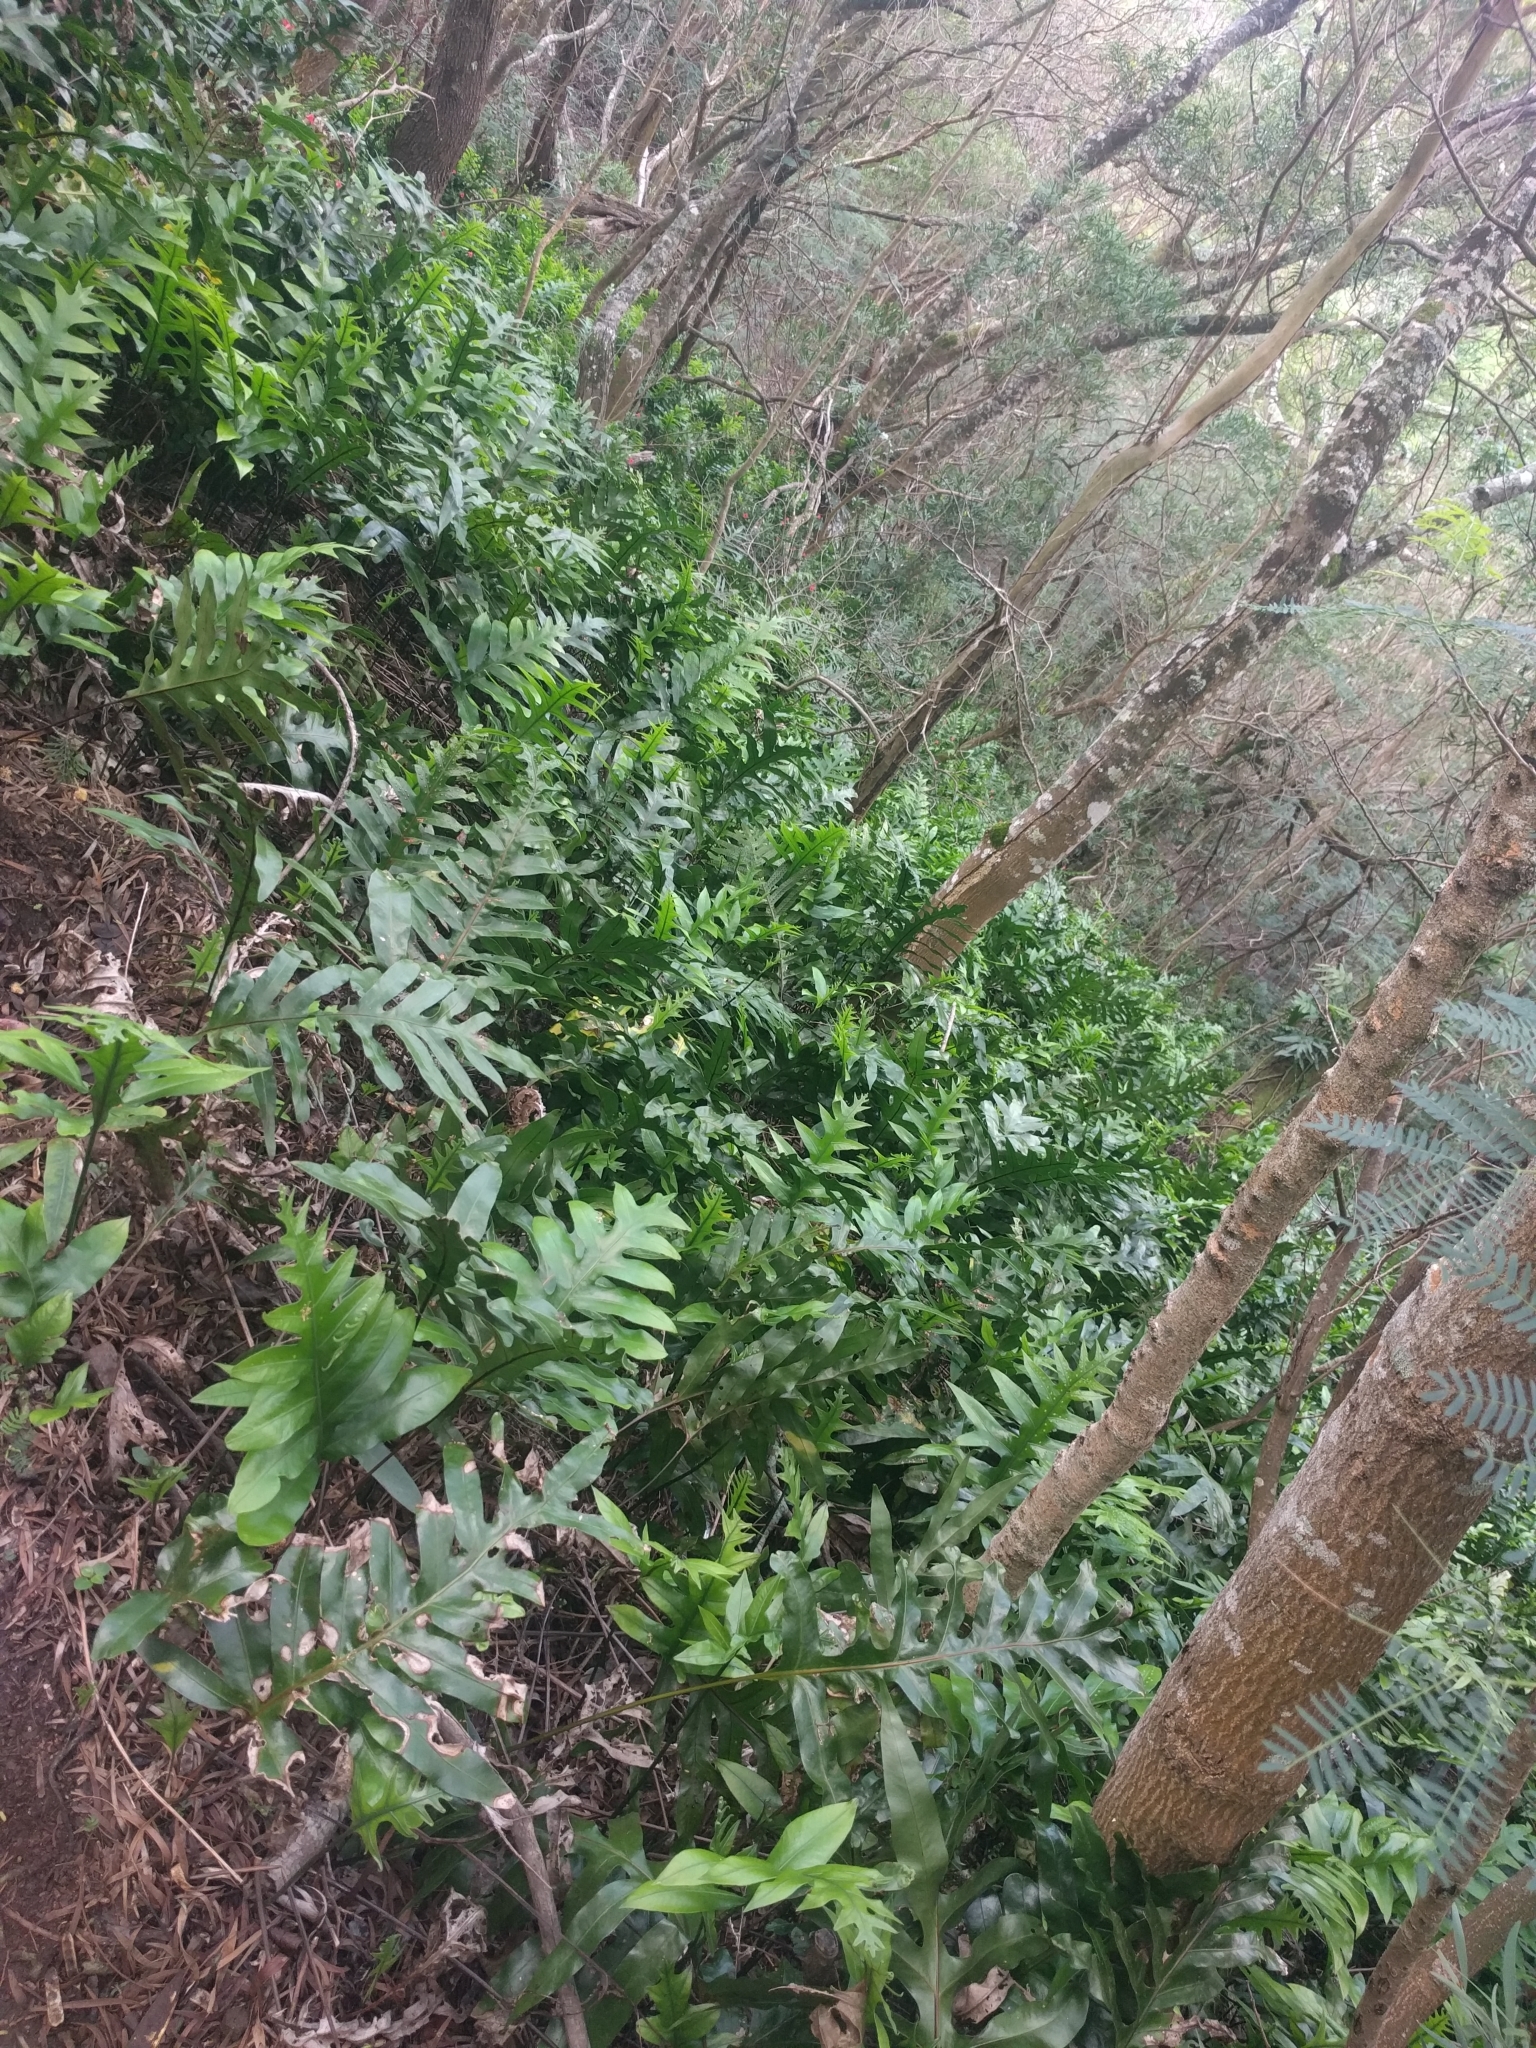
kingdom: Plantae
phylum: Tracheophyta
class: Polypodiopsida
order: Polypodiales
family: Polypodiaceae
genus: Microsorum
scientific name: Microsorum grossum
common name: Musk fern
